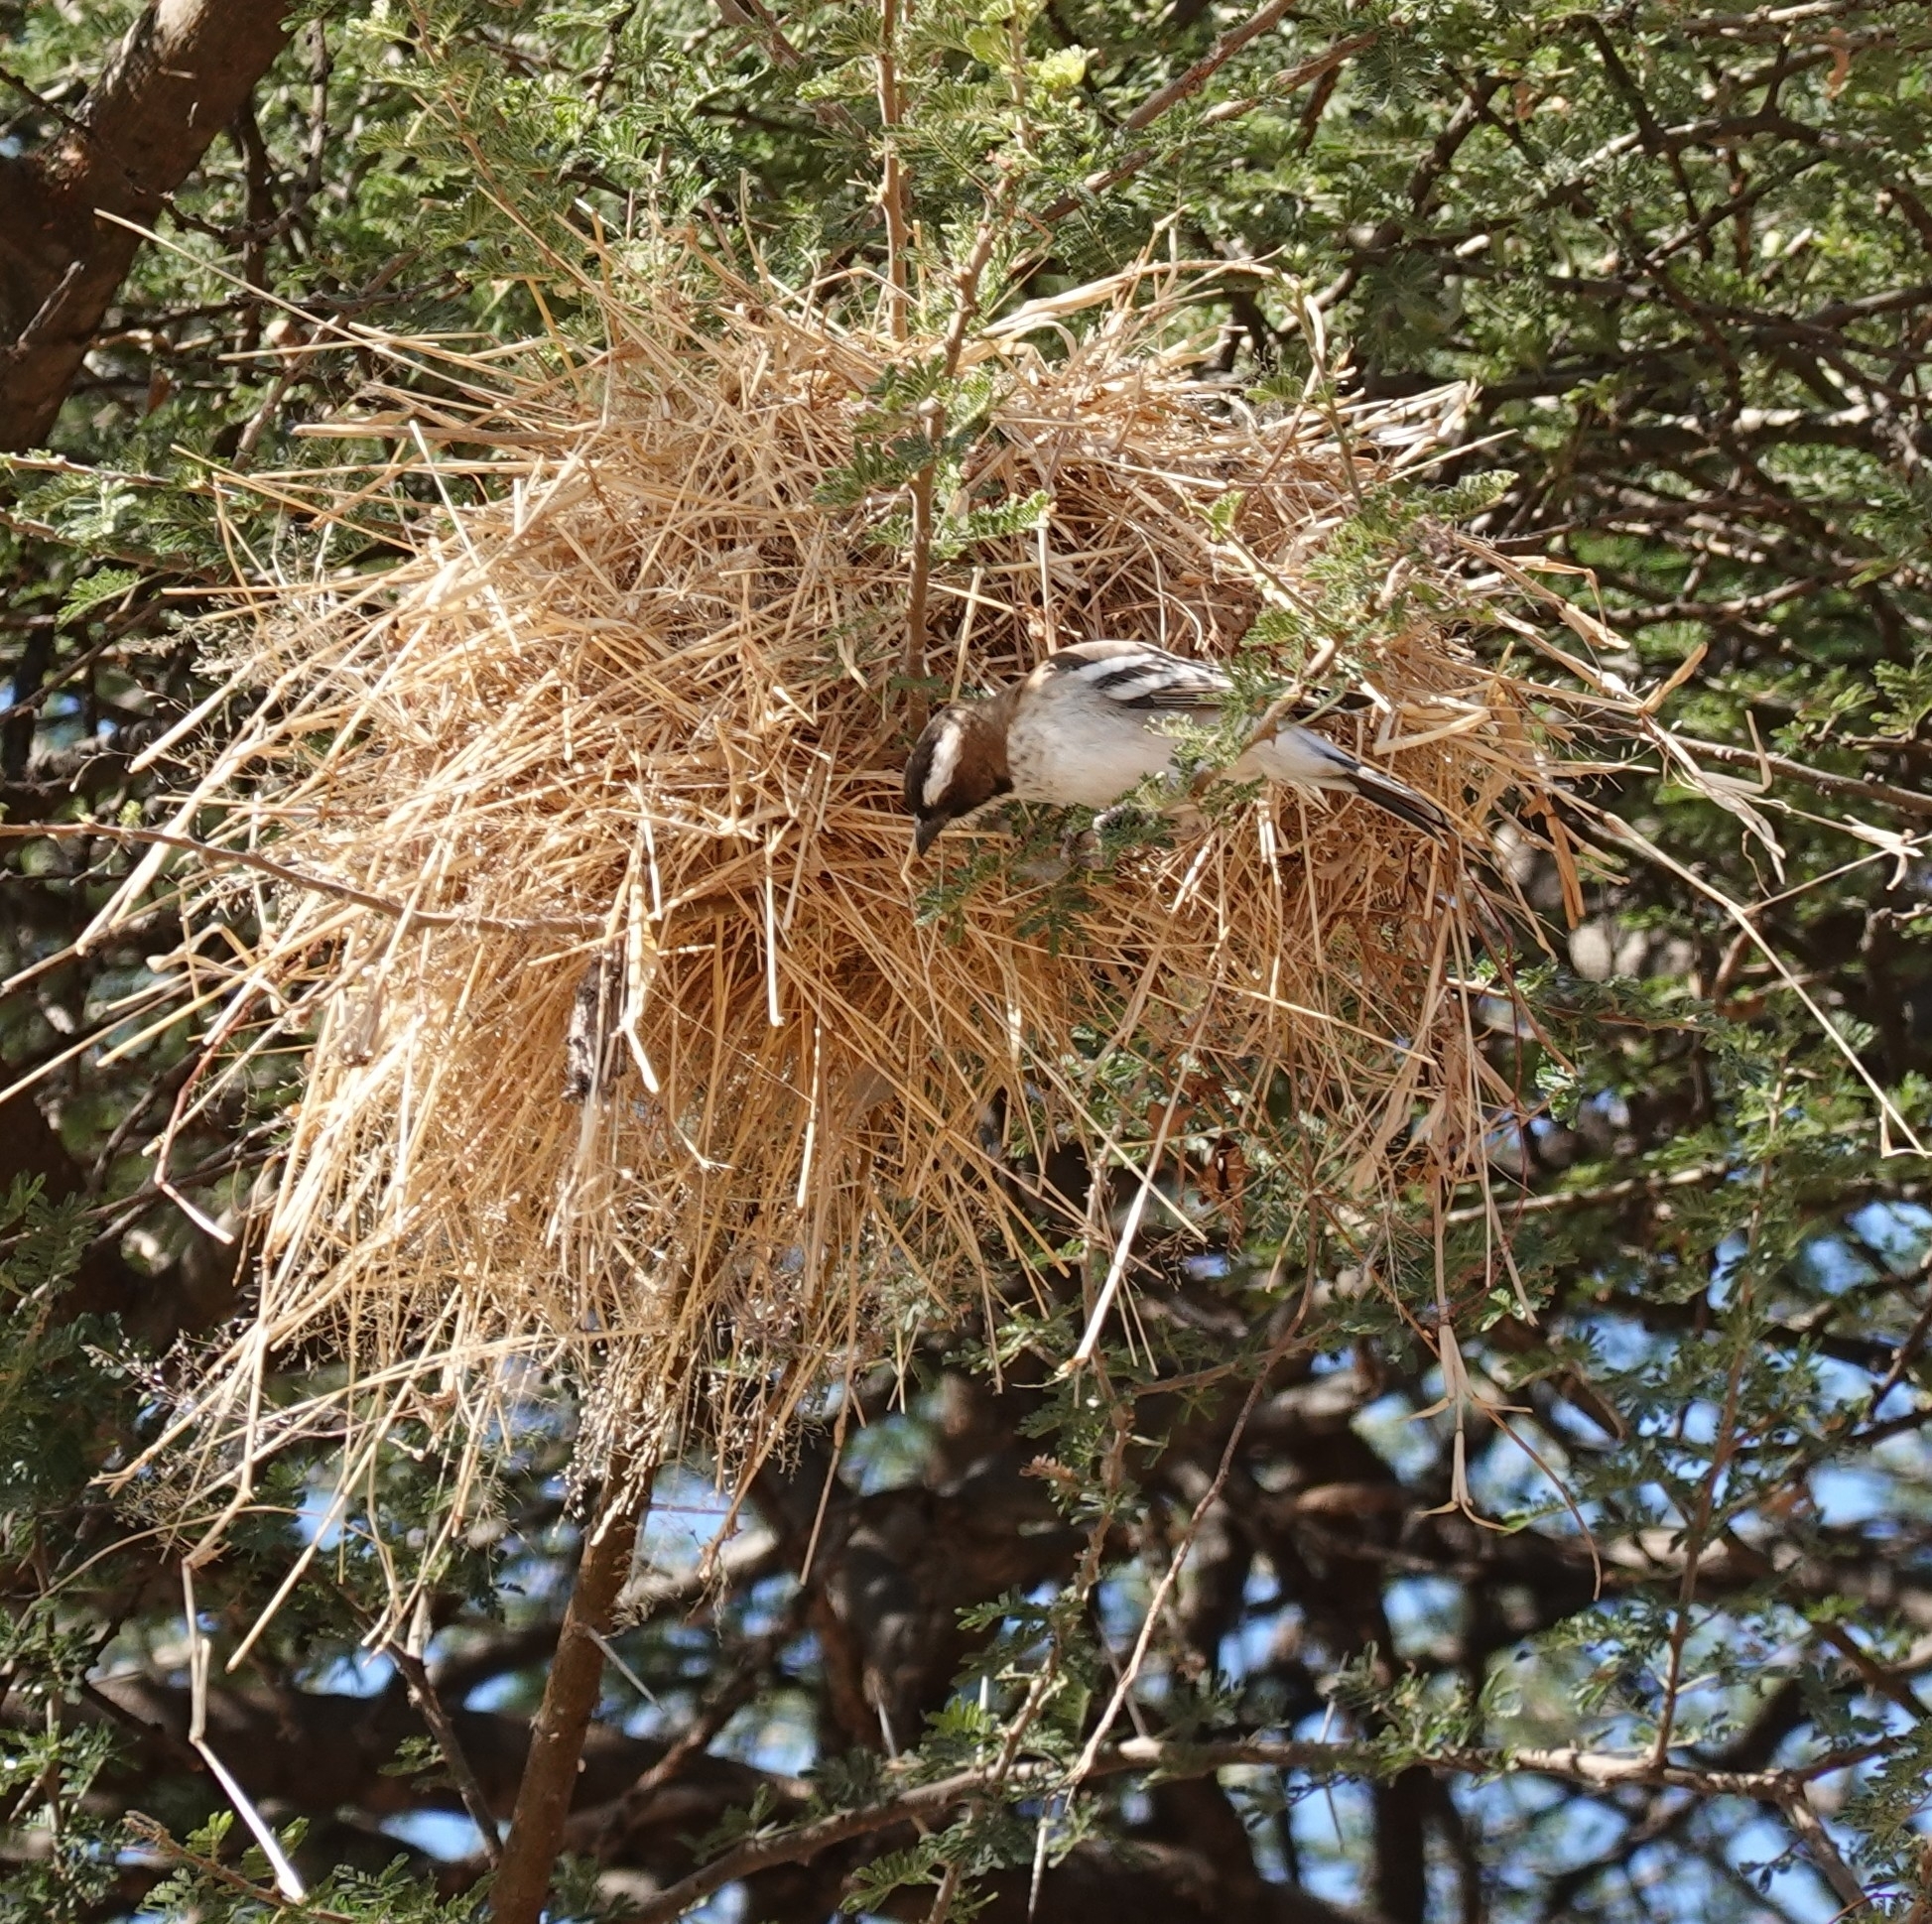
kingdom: Animalia
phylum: Chordata
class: Aves
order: Passeriformes
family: Passeridae
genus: Plocepasser
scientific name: Plocepasser mahali
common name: White-browed sparrow-weaver
